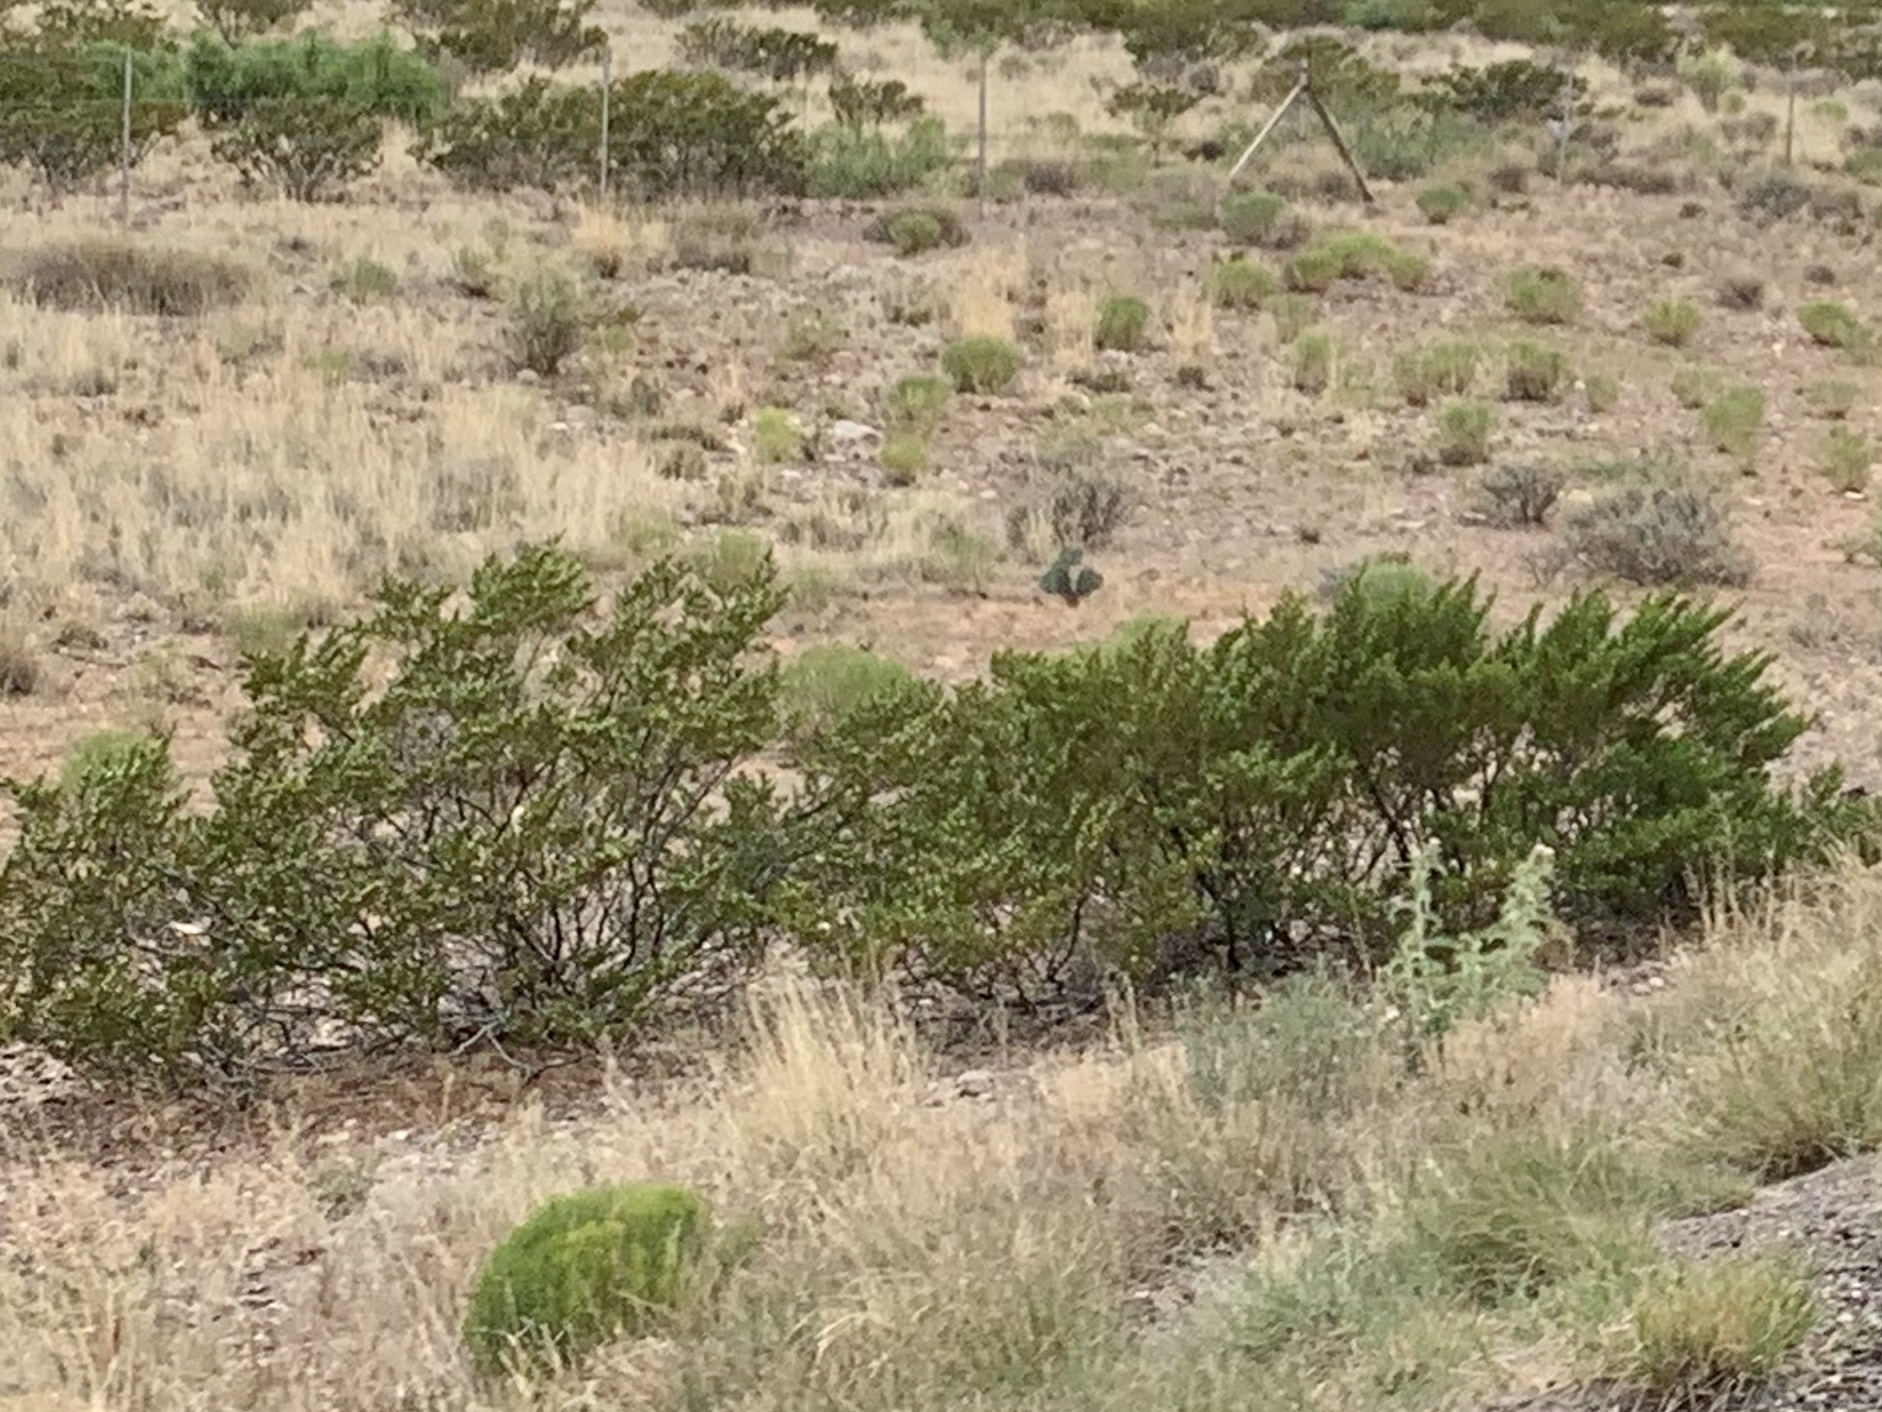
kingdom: Plantae
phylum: Tracheophyta
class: Magnoliopsida
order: Zygophyllales
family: Zygophyllaceae
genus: Larrea
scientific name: Larrea tridentata
